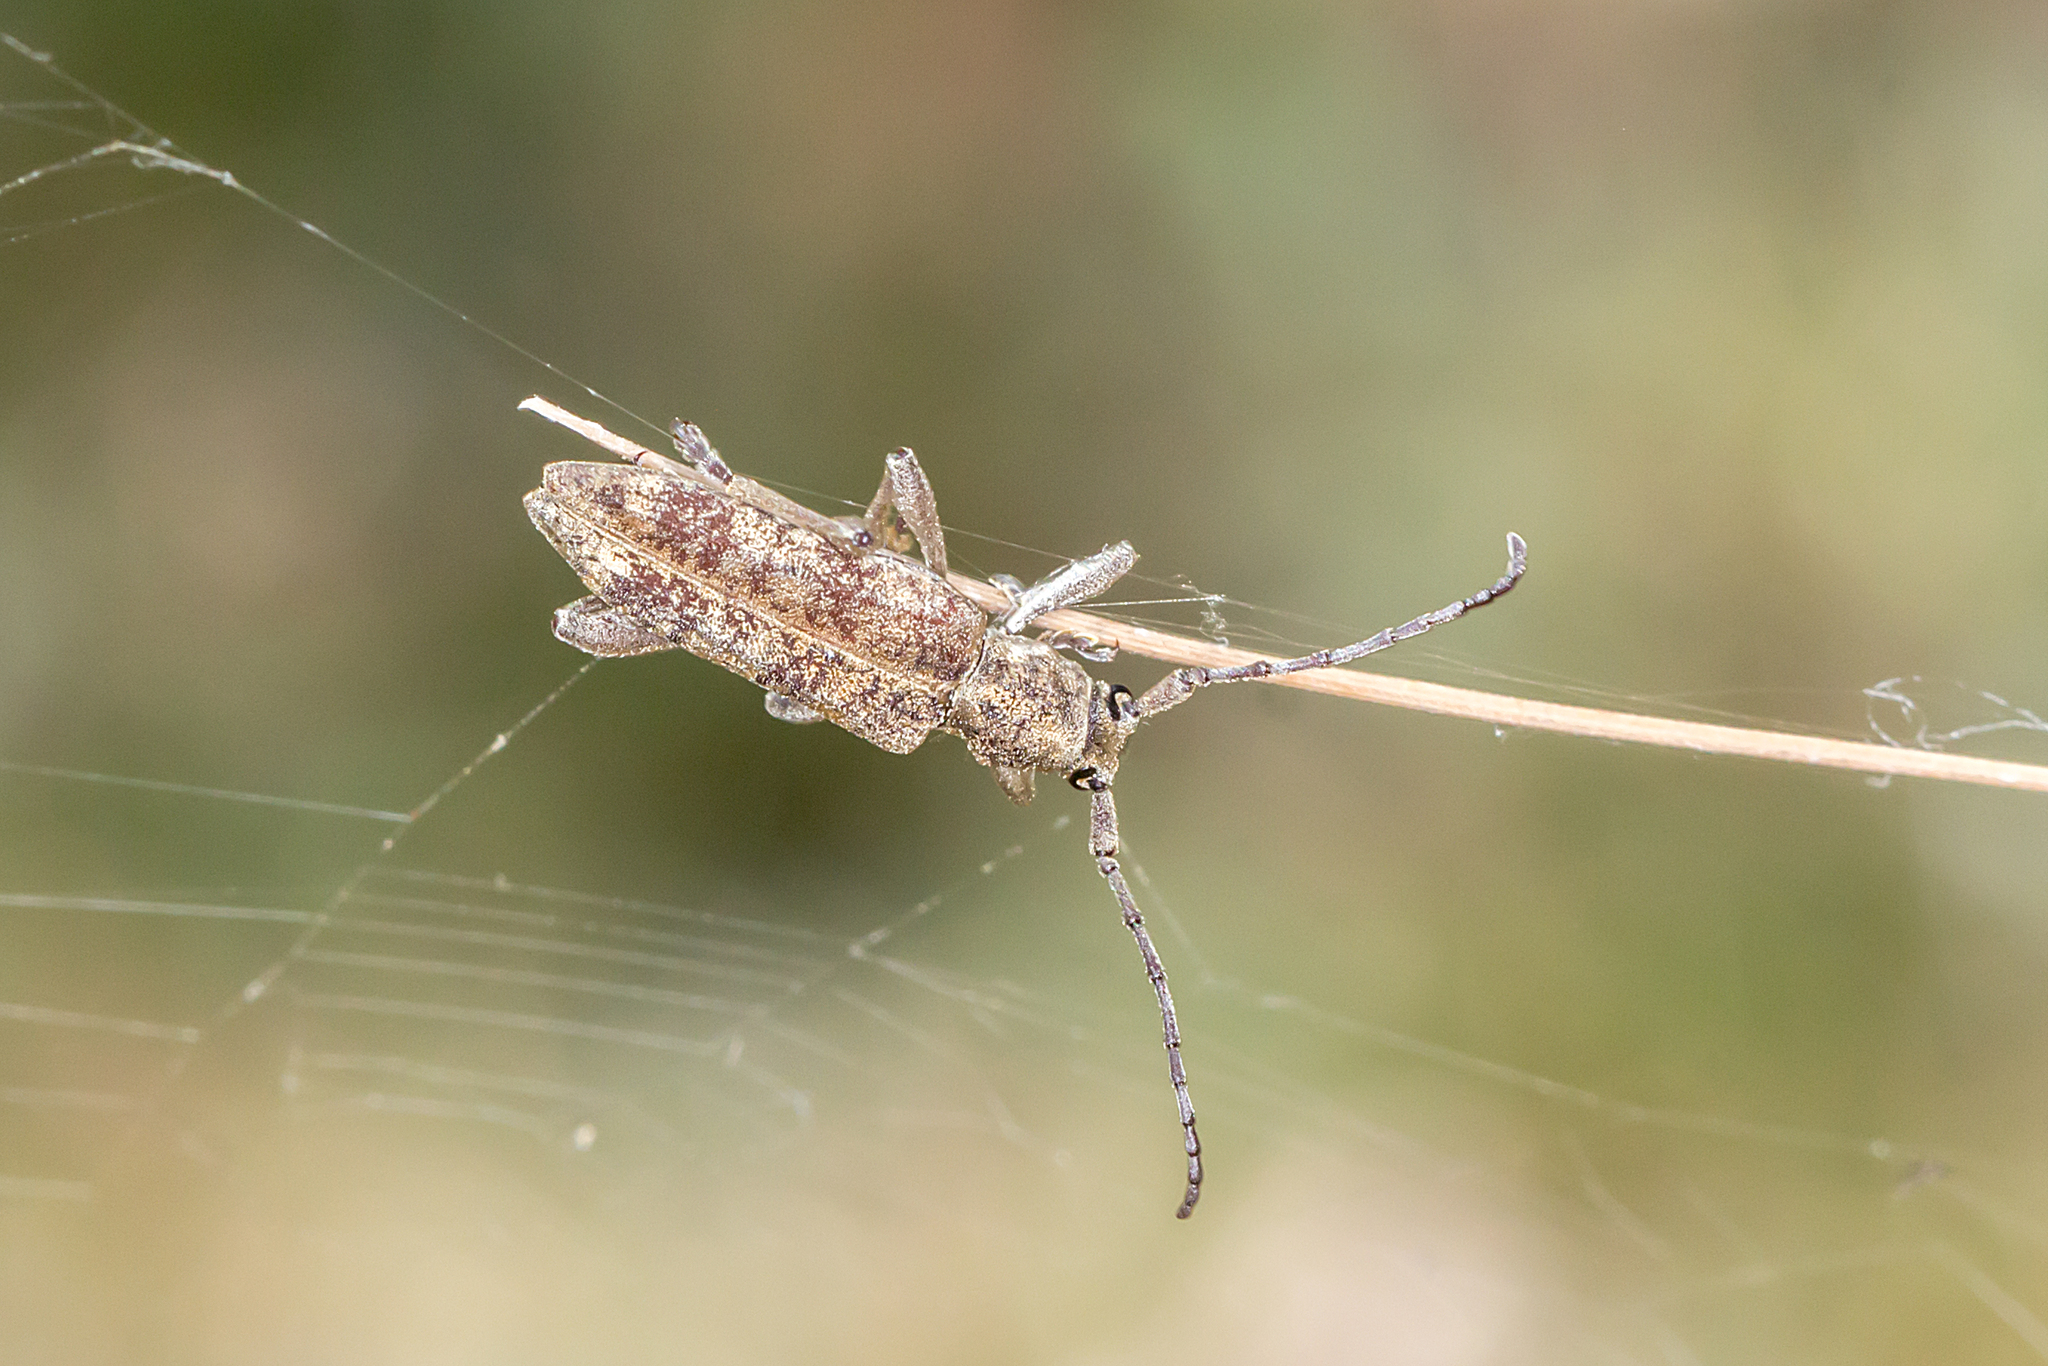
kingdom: Animalia
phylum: Arthropoda
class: Insecta
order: Coleoptera
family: Cerambycidae
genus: Pempsamacra
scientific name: Pempsamacra dispersa
